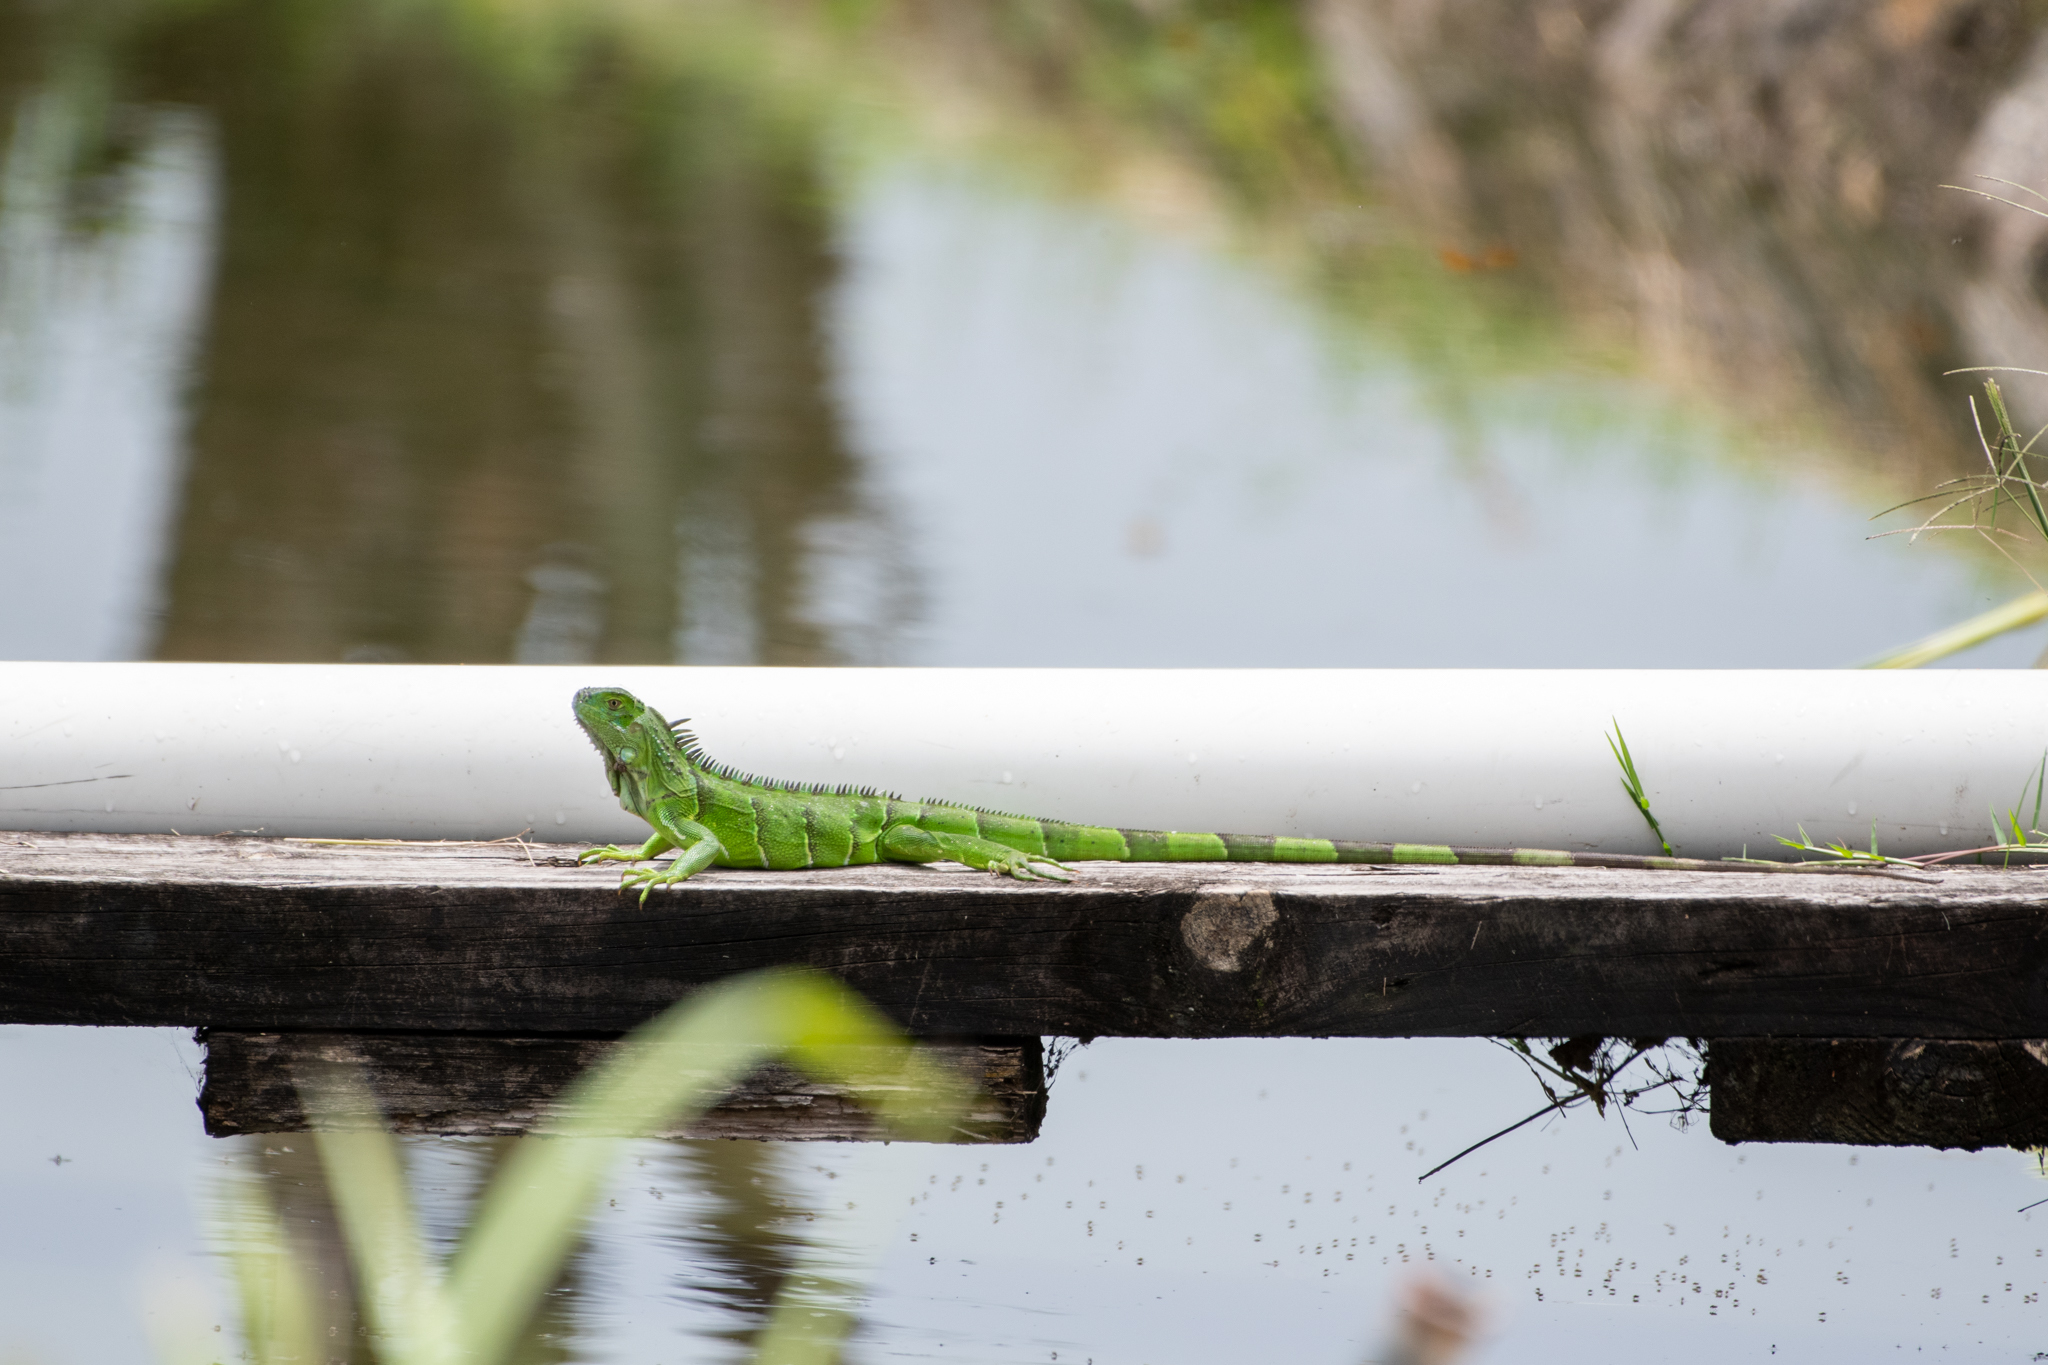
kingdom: Animalia
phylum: Chordata
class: Squamata
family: Iguanidae
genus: Iguana
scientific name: Iguana iguana
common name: Green iguana
